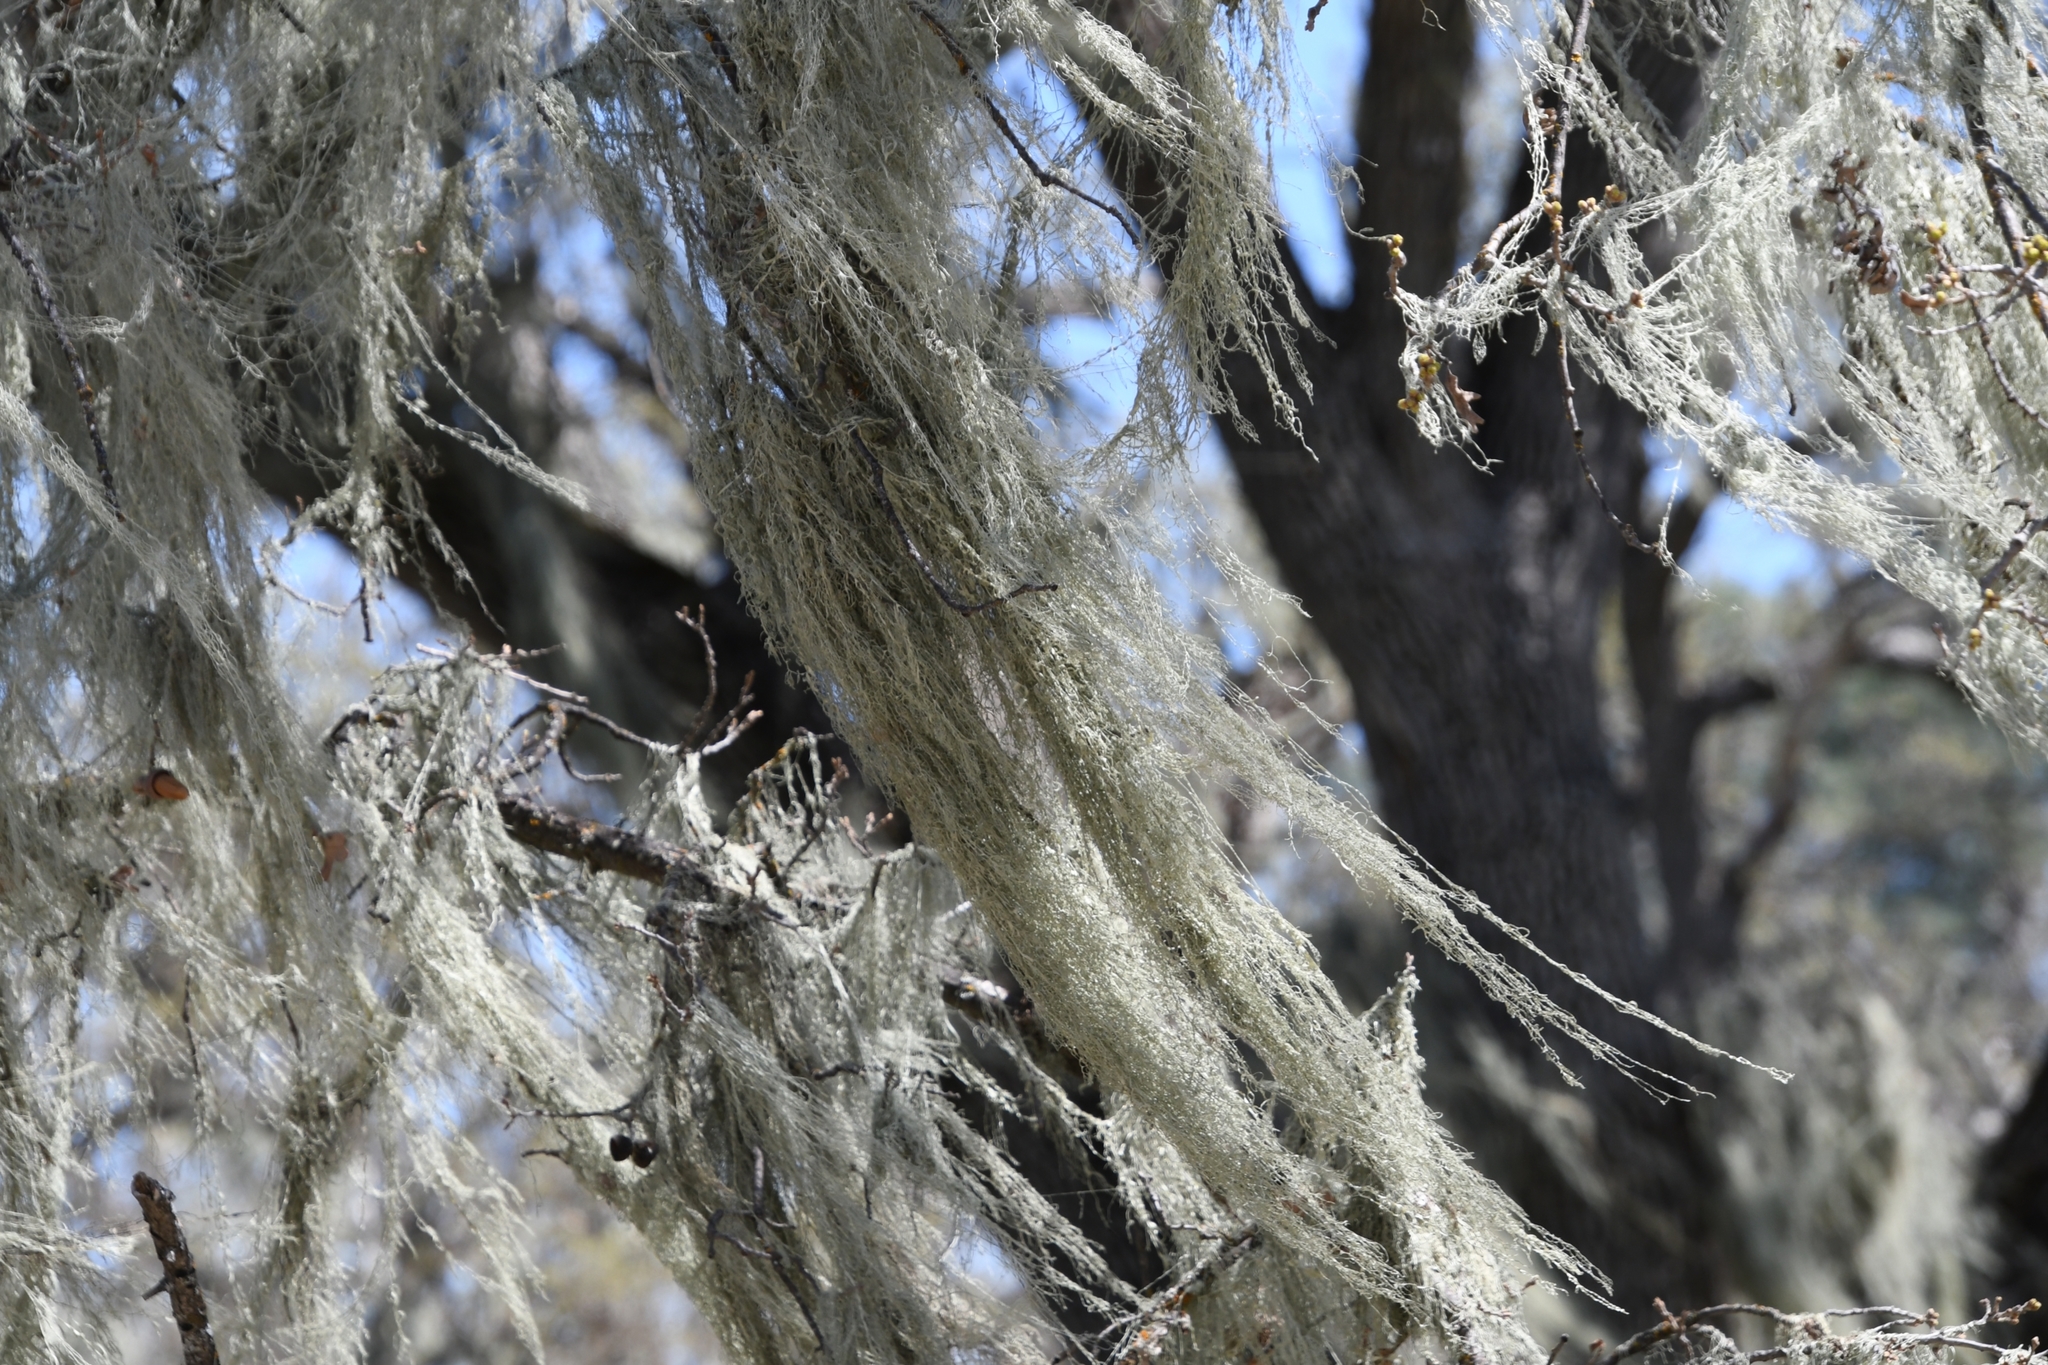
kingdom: Fungi
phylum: Ascomycota
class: Lecanoromycetes
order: Lecanorales
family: Ramalinaceae
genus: Ramalina
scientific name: Ramalina menziesii
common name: Lace lichen
